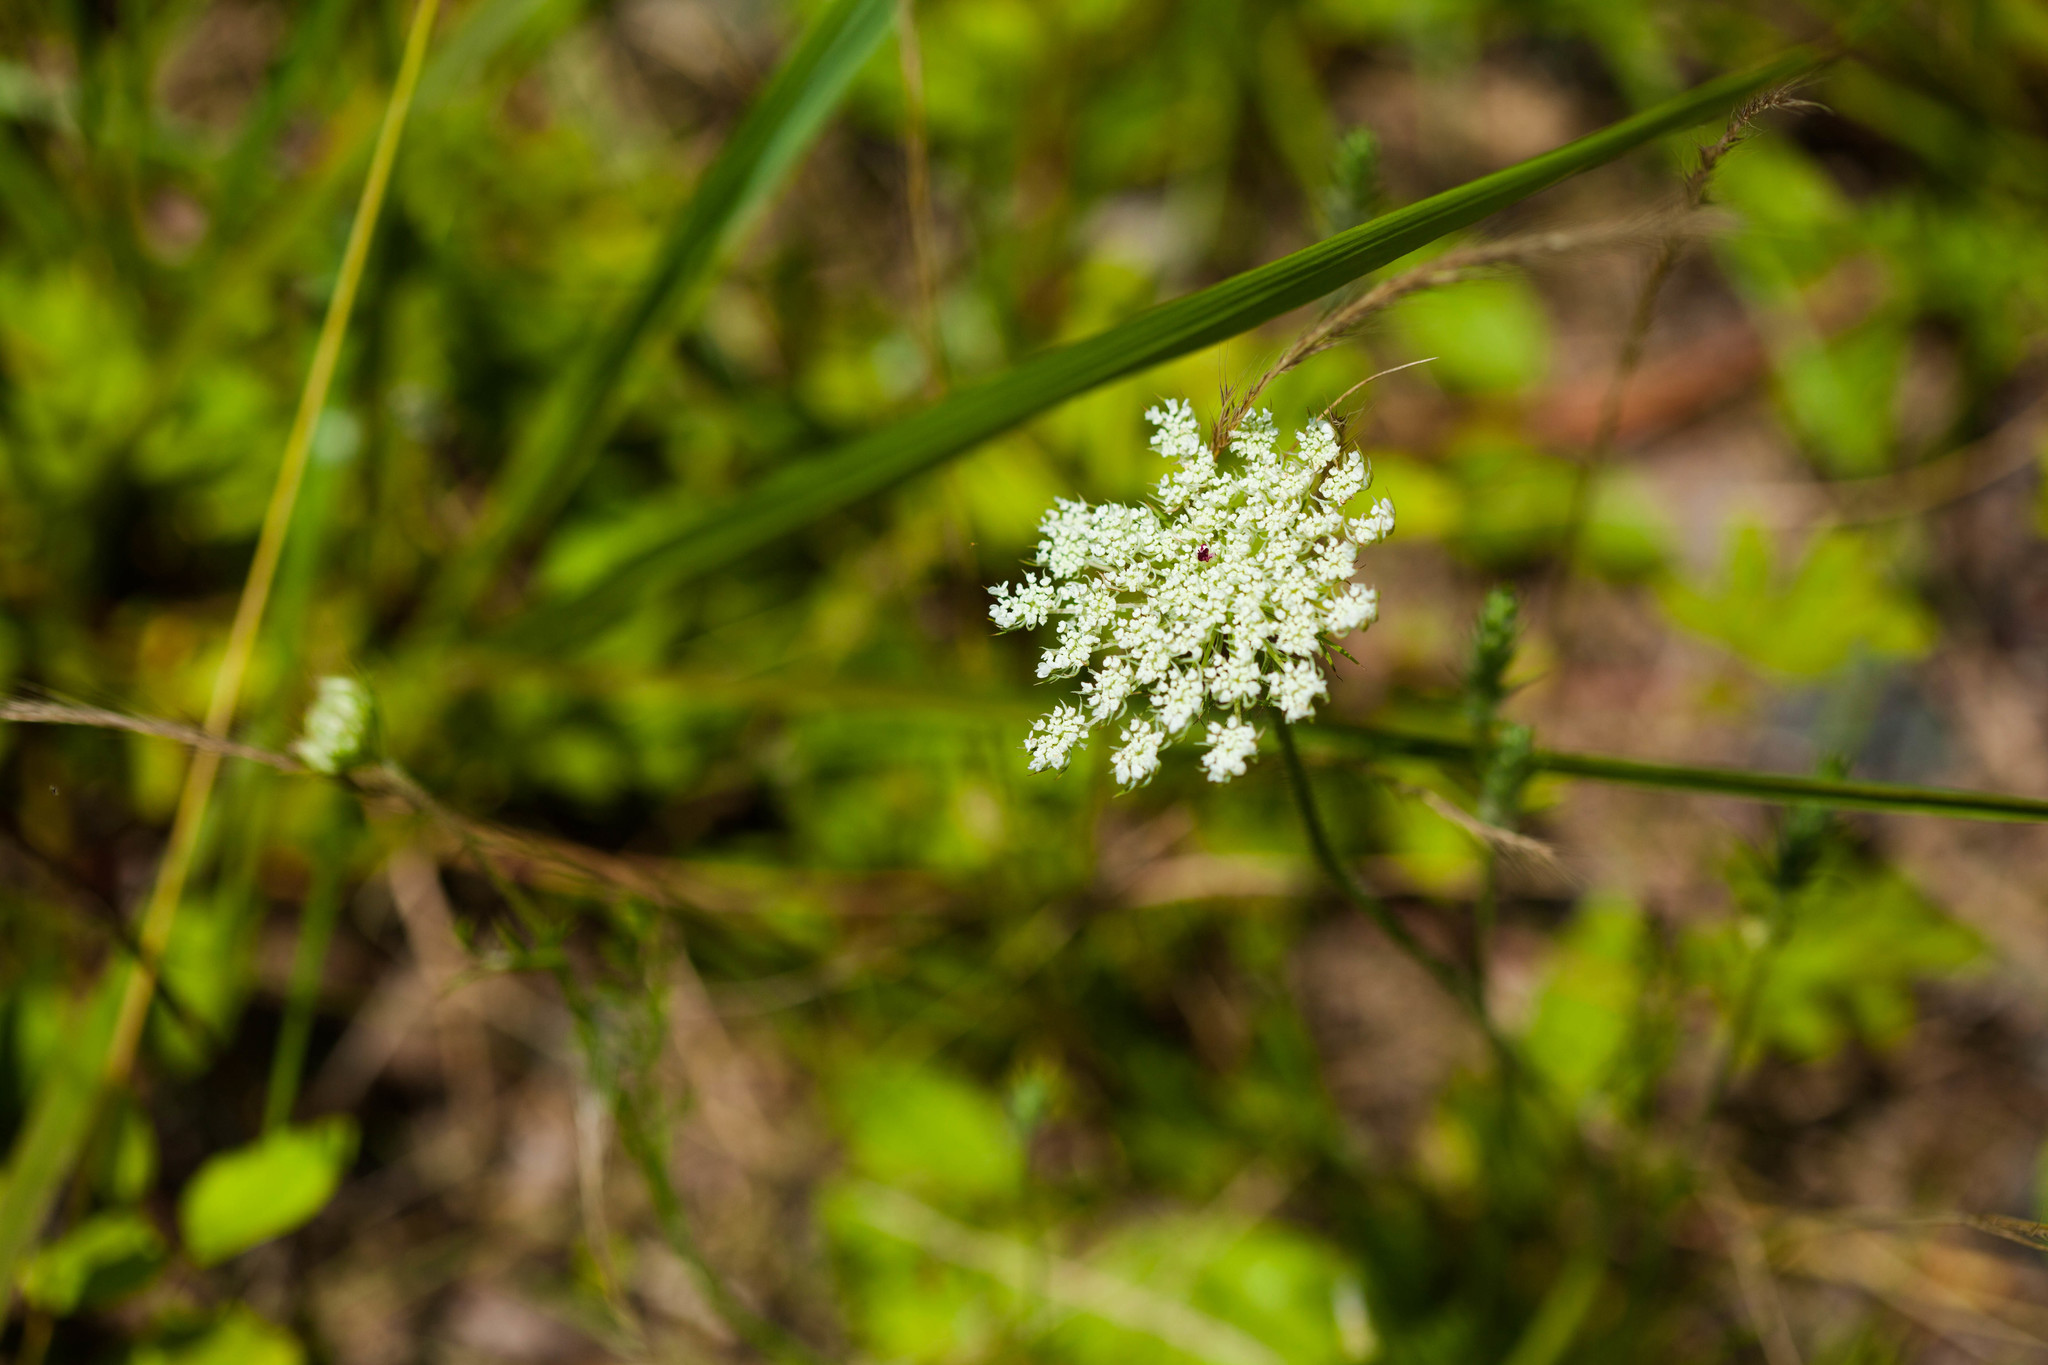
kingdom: Plantae
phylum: Tracheophyta
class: Magnoliopsida
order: Apiales
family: Apiaceae
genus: Daucus
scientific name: Daucus carota
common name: Wild carrot
